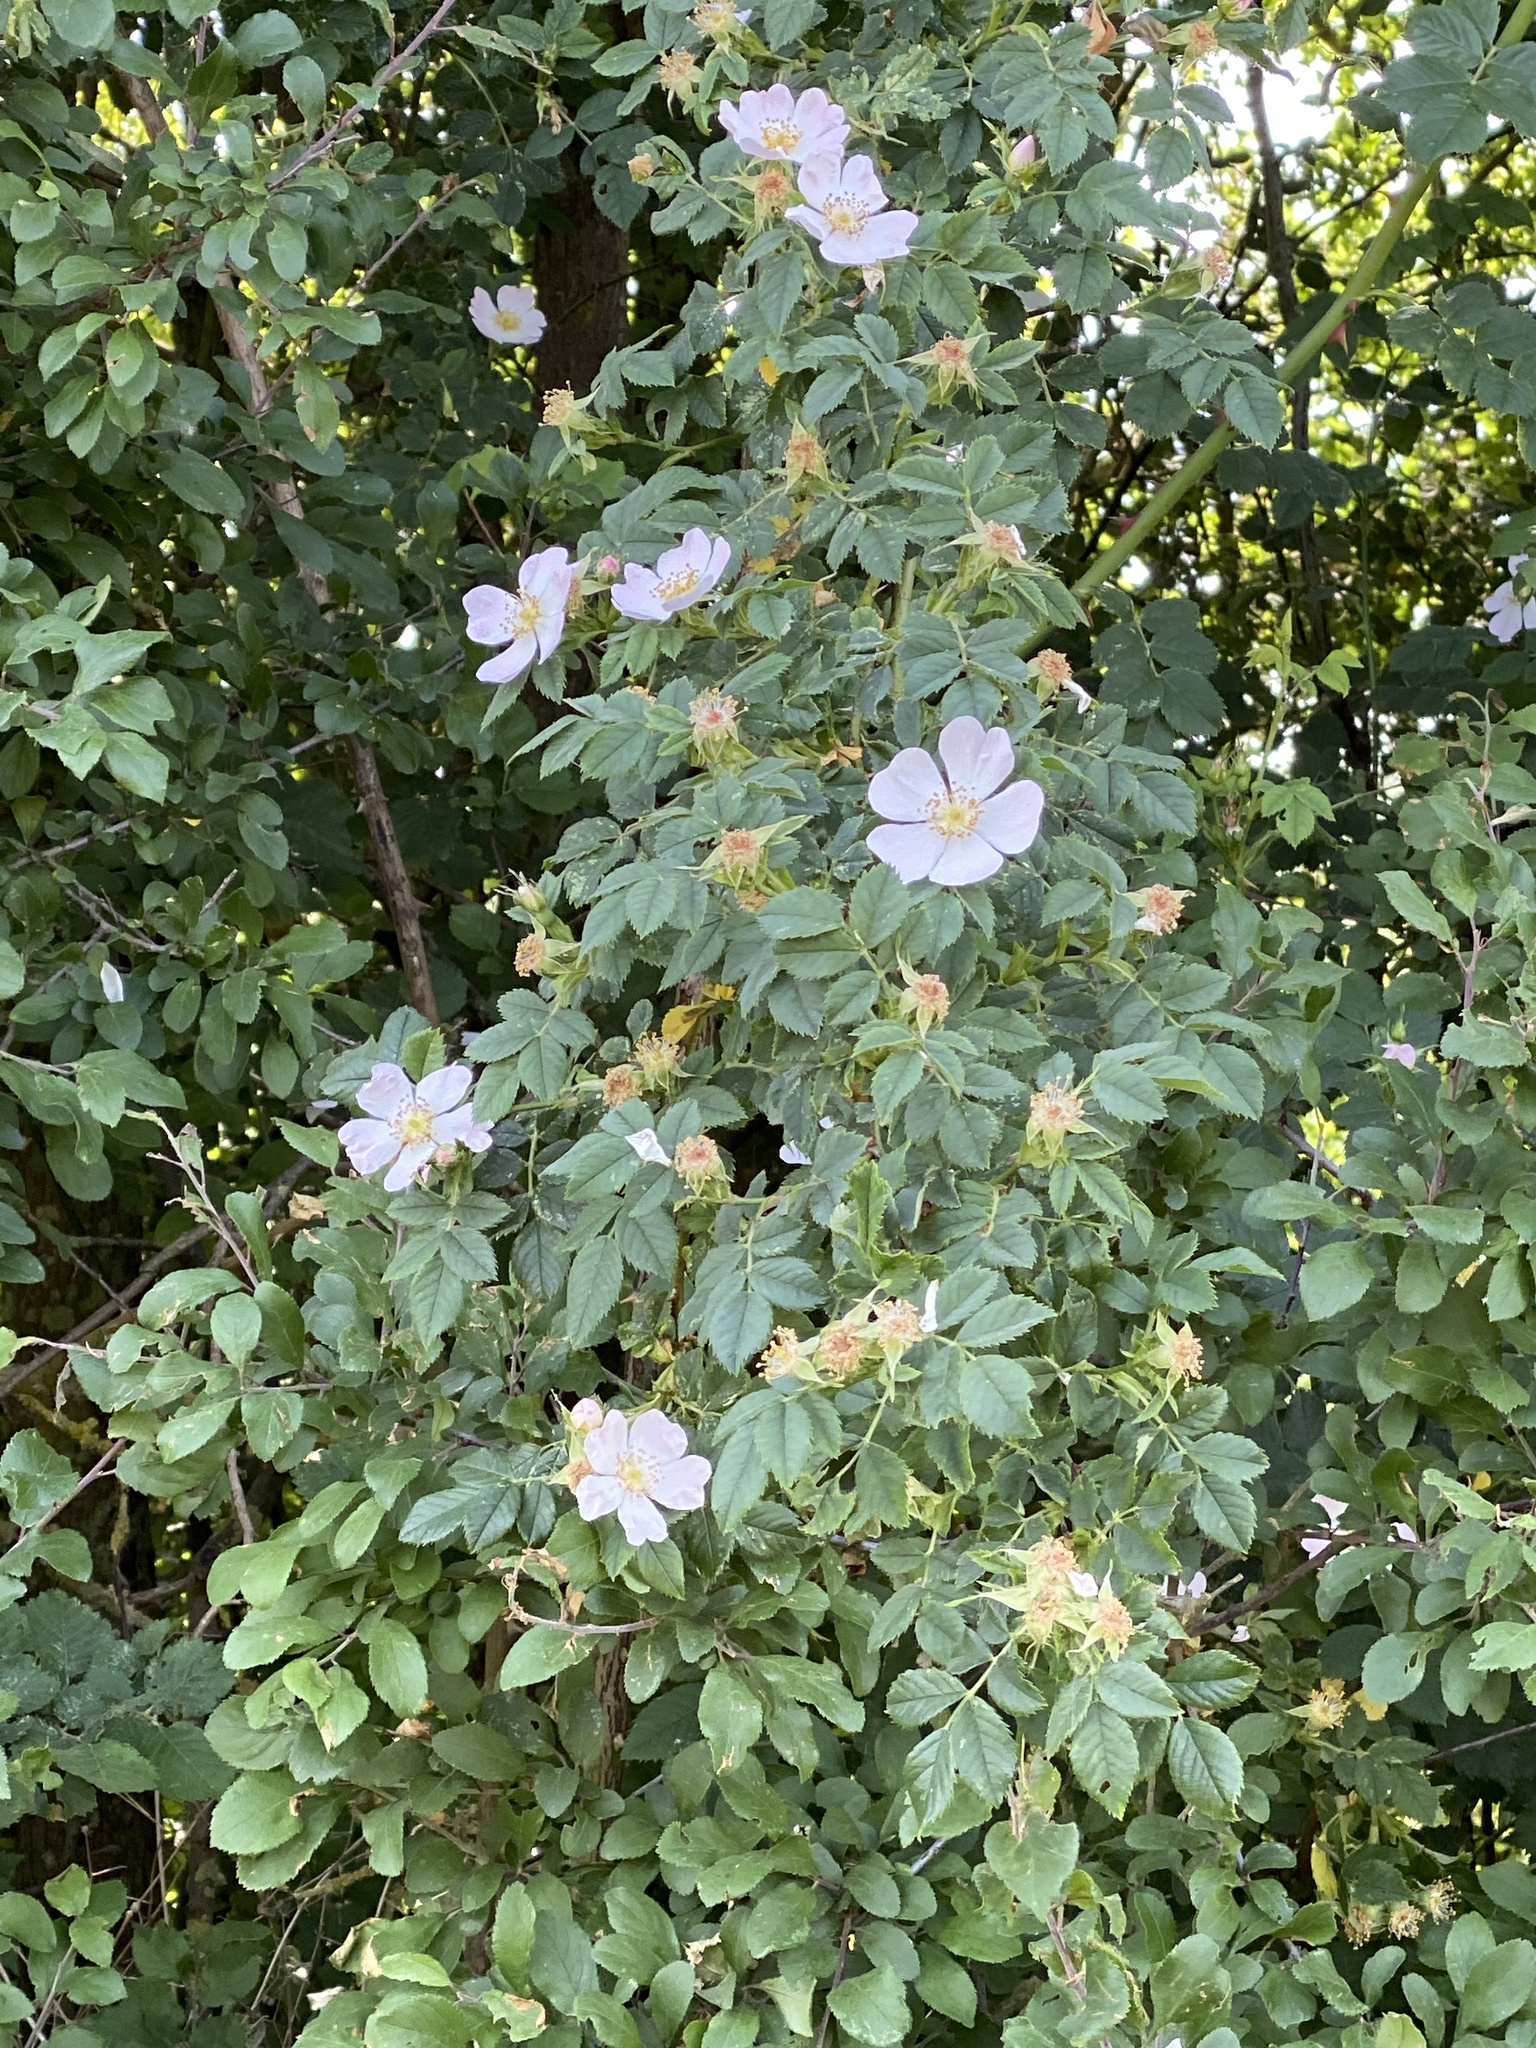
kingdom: Plantae
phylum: Tracheophyta
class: Magnoliopsida
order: Rosales
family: Rosaceae
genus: Rosa
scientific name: Rosa canina
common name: Dog rose
